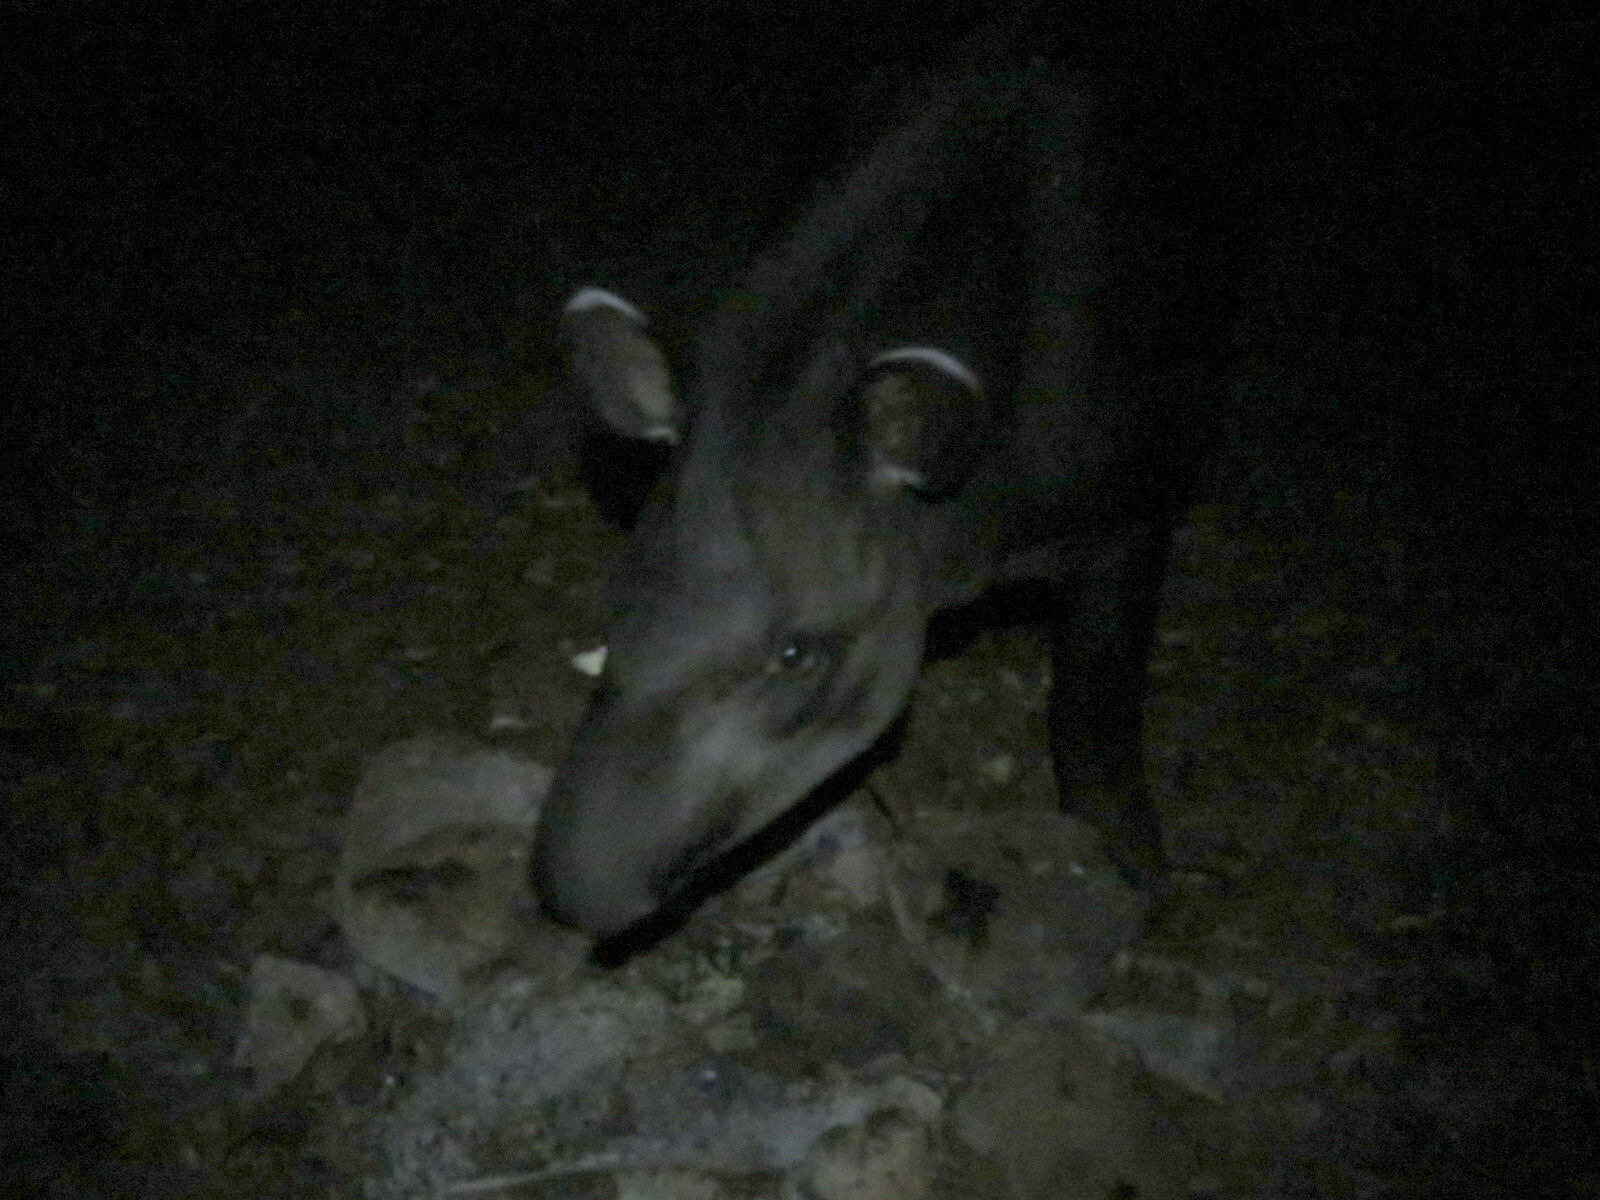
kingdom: Animalia
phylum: Chordata
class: Mammalia
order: Perissodactyla
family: Tapiridae
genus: Tapirus
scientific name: Tapirus terrestris
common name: Brazilian tapir
